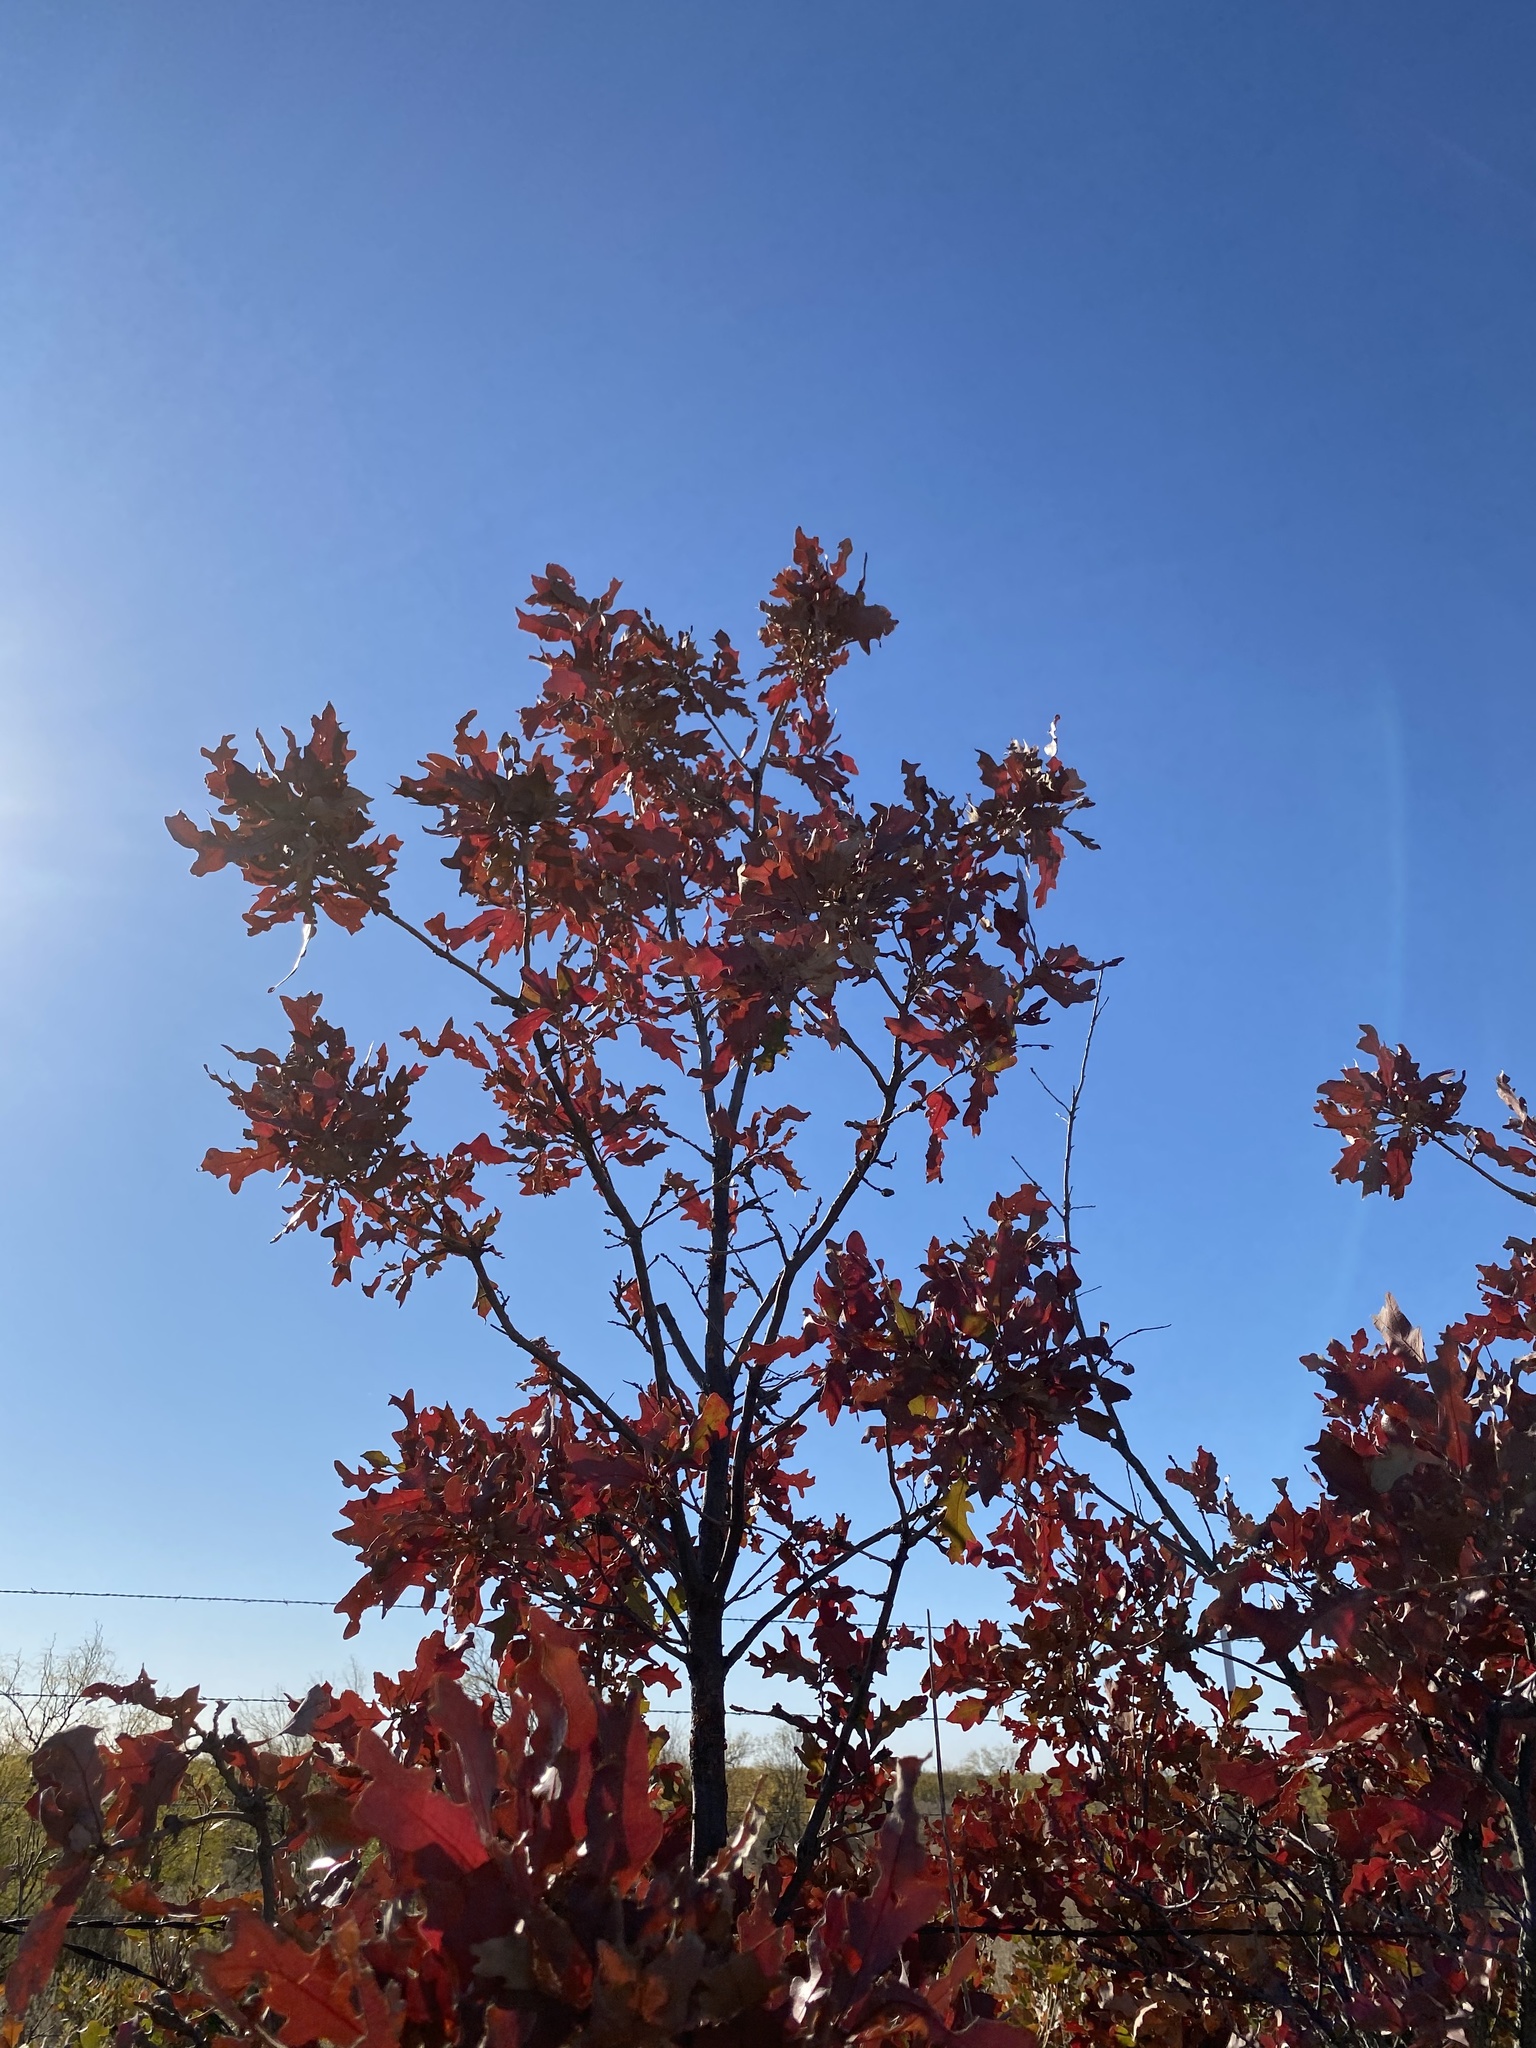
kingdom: Plantae
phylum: Tracheophyta
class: Magnoliopsida
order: Fagales
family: Fagaceae
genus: Quercus
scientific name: Quercus havardii
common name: Shinnery oak
